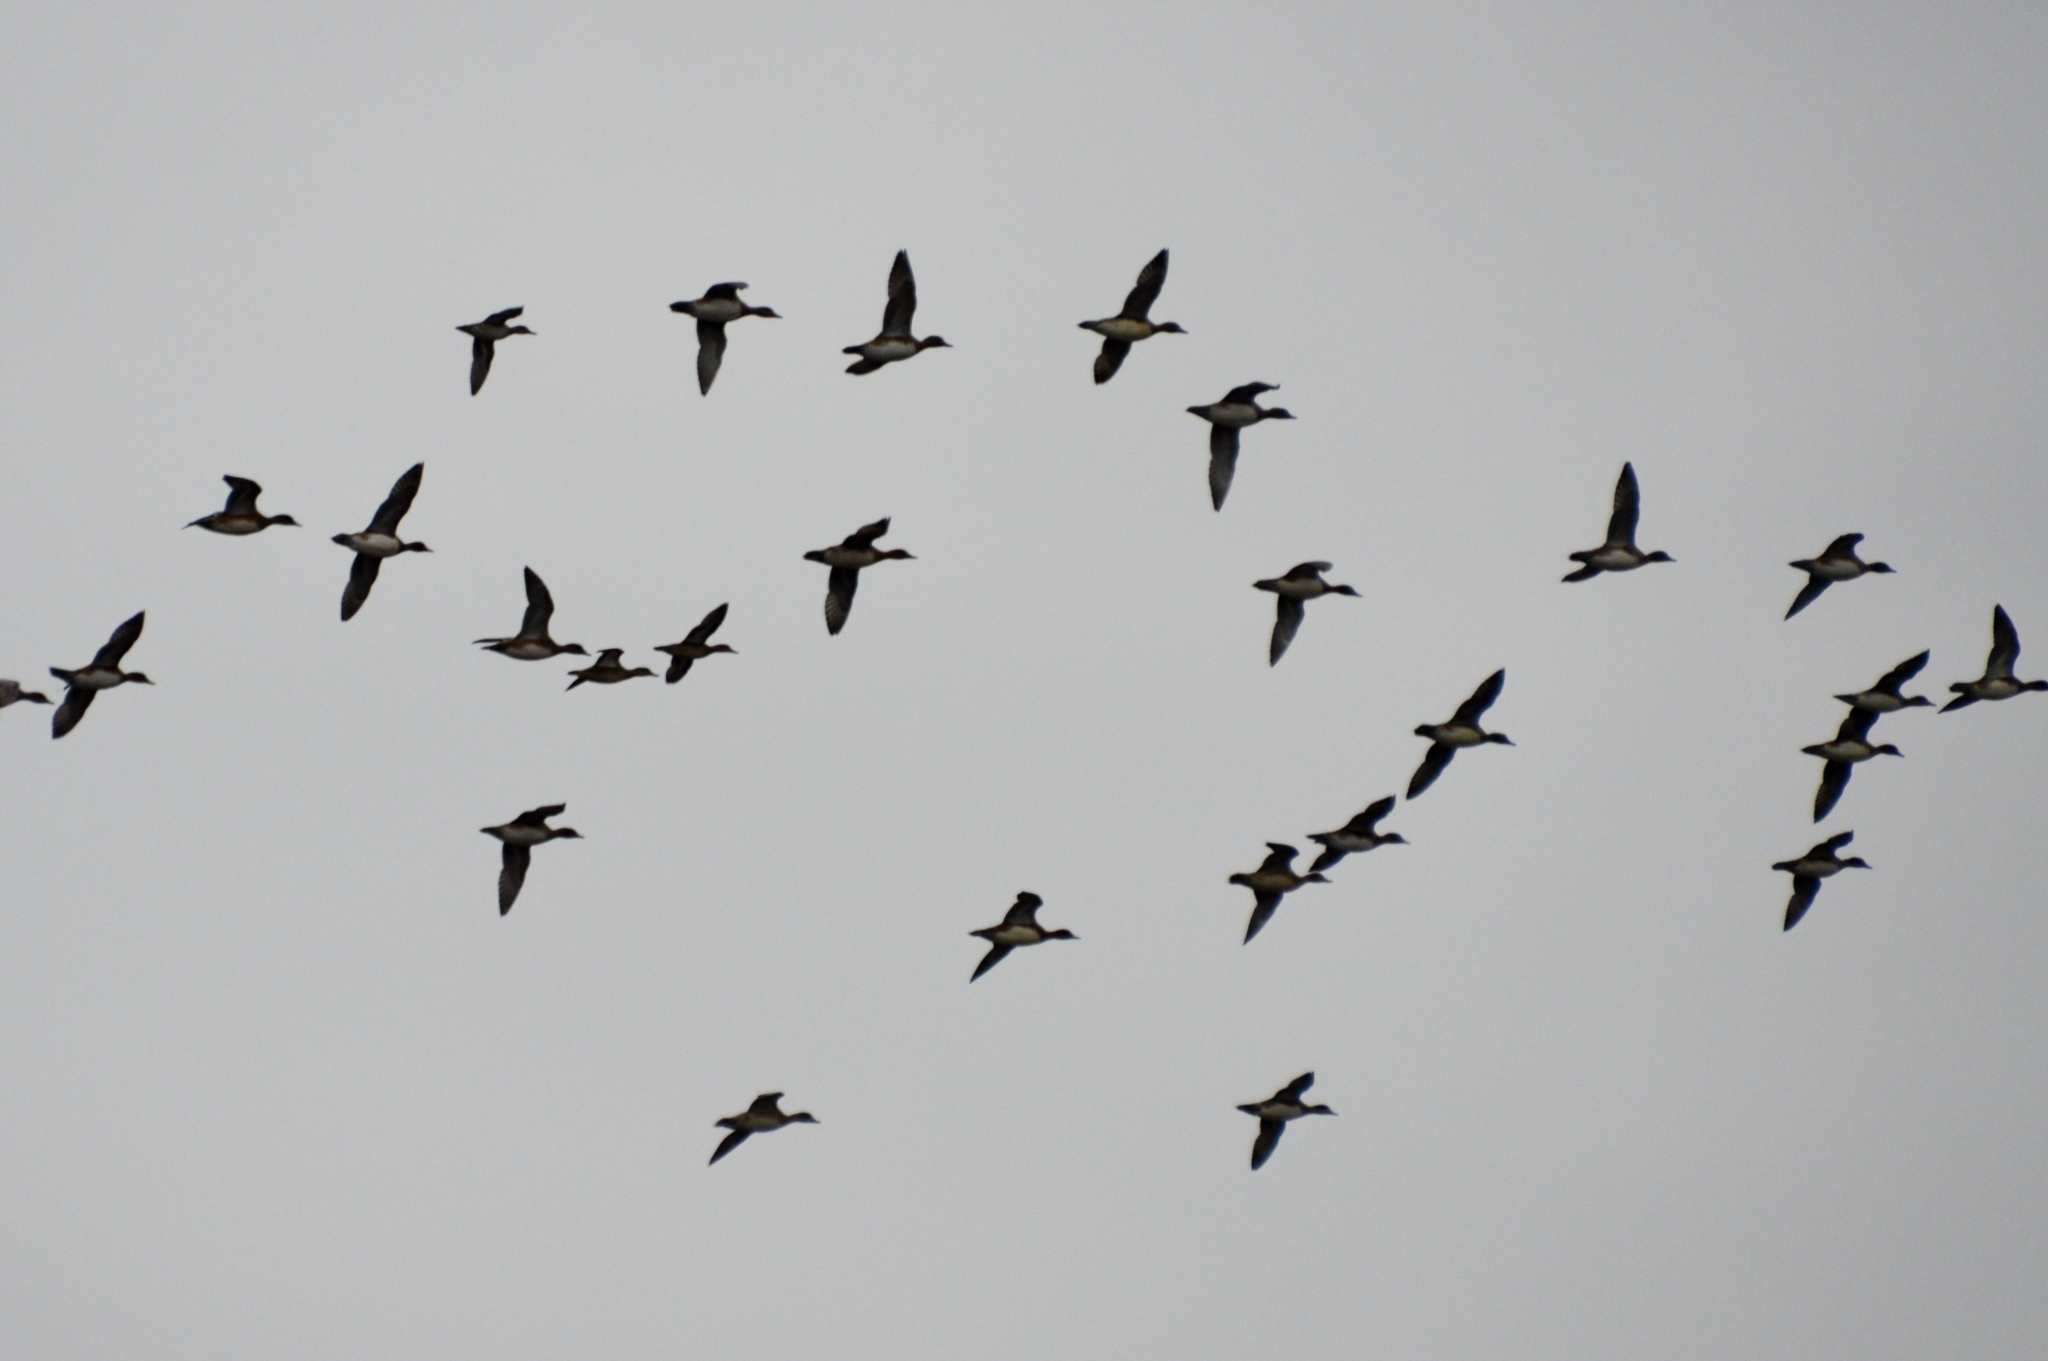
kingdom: Animalia
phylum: Chordata
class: Aves
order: Anseriformes
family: Anatidae
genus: Mareca
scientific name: Mareca penelope
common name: Eurasian wigeon
